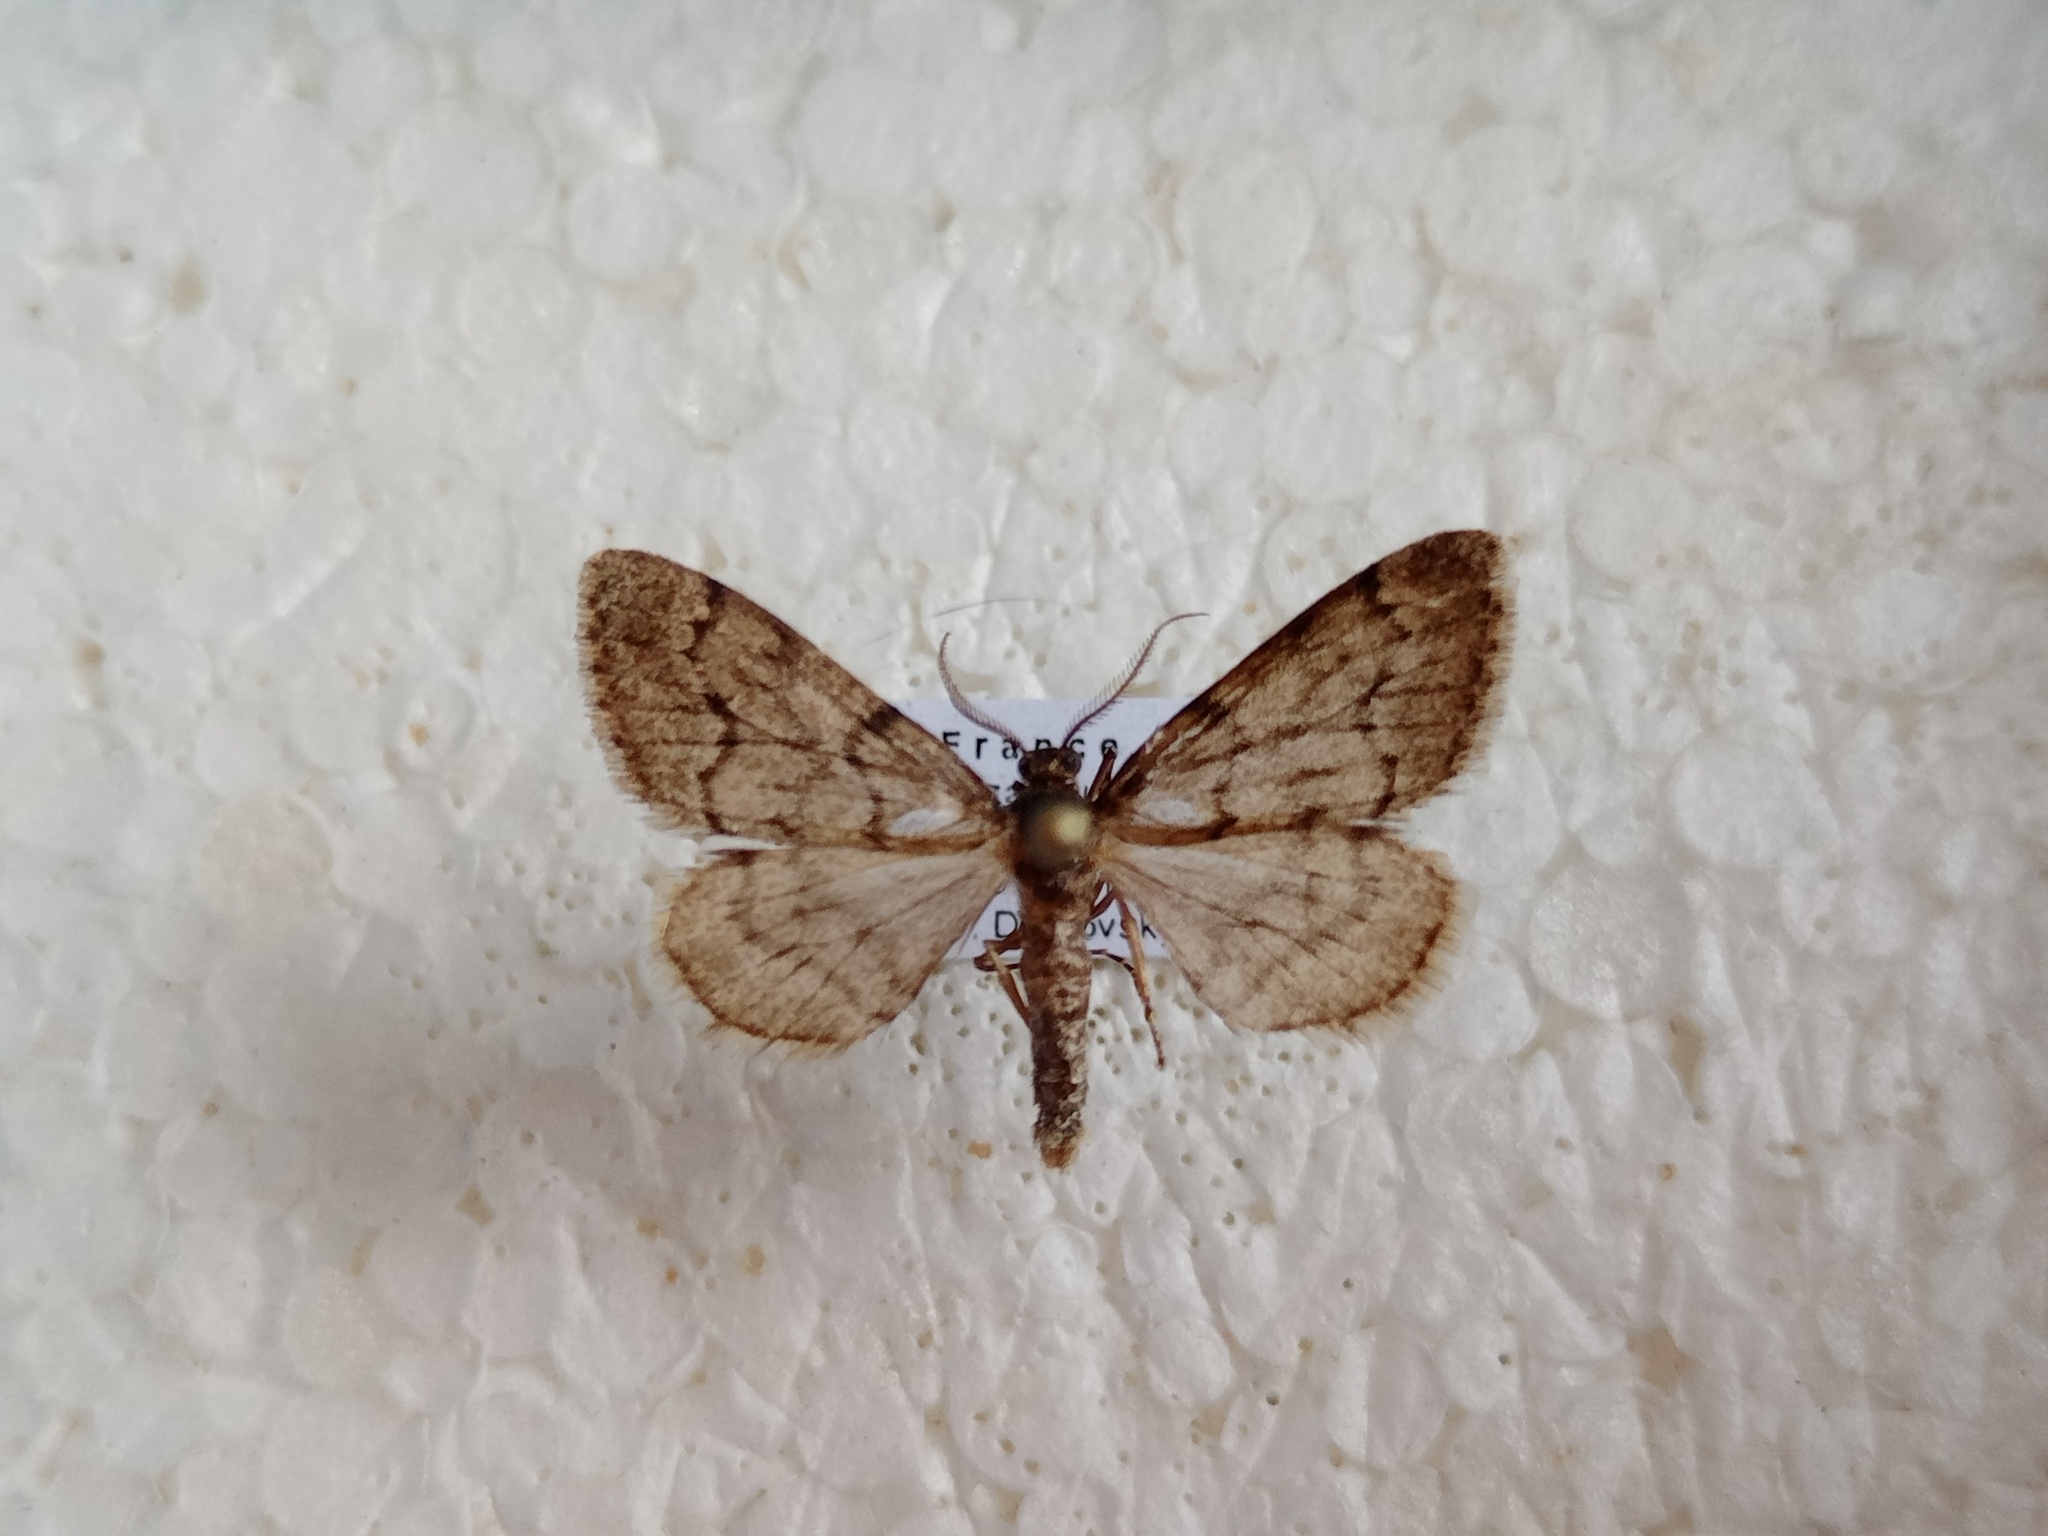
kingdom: Animalia
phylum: Arthropoda
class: Insecta
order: Lepidoptera
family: Geometridae
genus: Tephronia
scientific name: Tephronia sepiaria
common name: Dusky carpet
